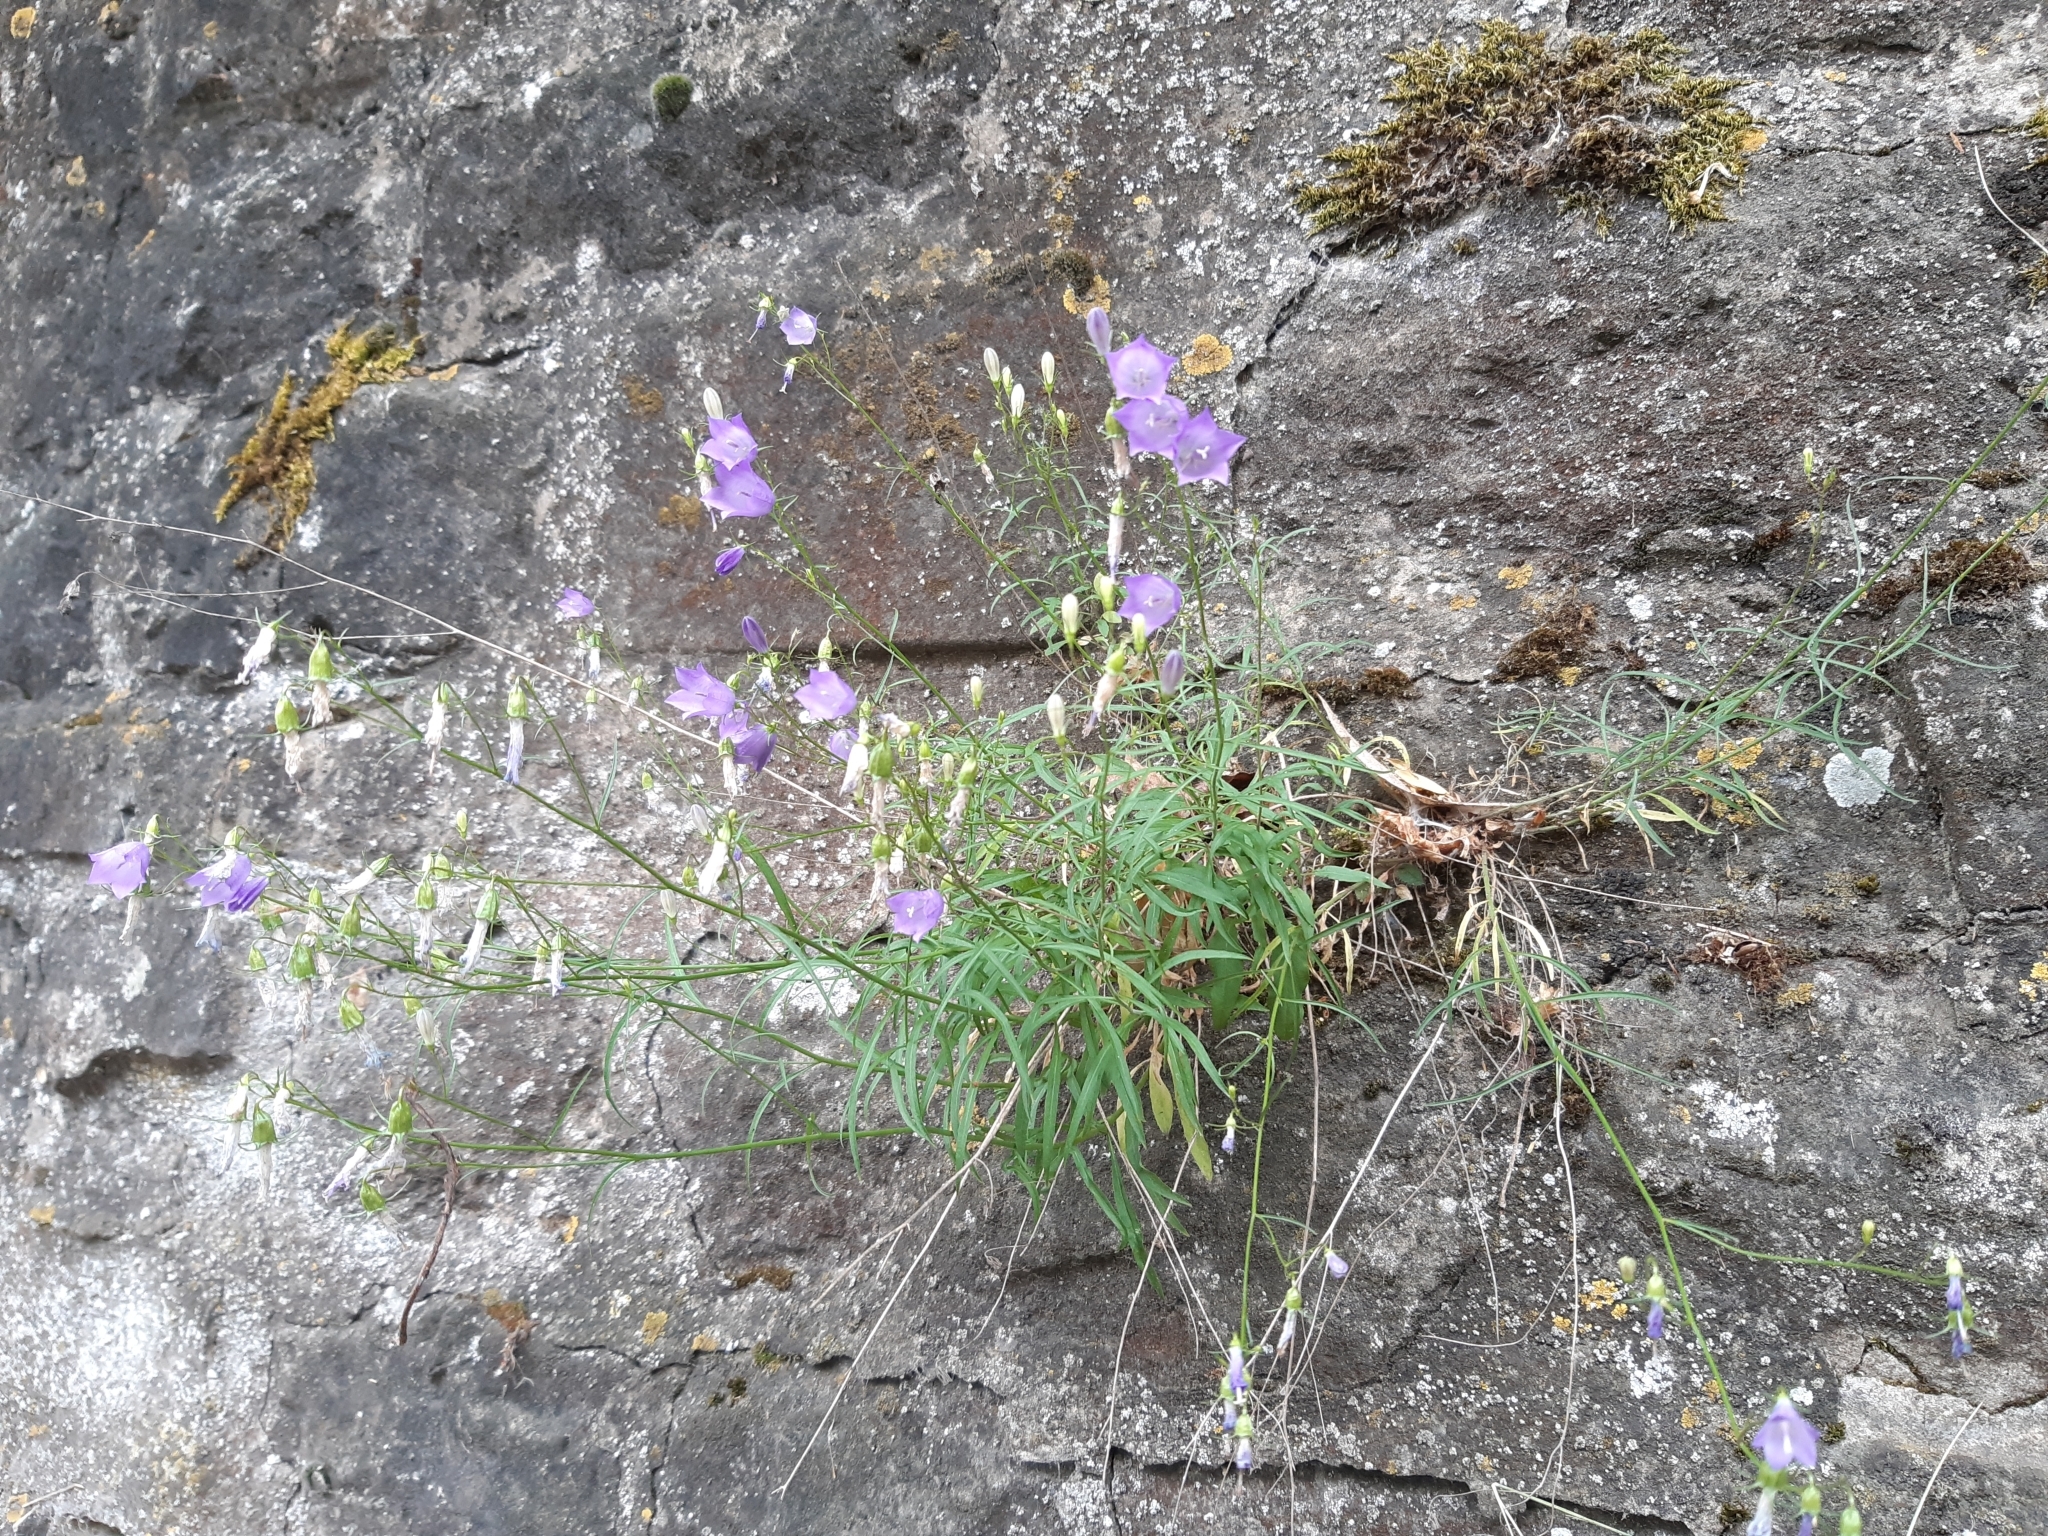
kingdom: Plantae
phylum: Tracheophyta
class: Magnoliopsida
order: Asterales
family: Campanulaceae
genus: Campanula
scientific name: Campanula rotundifolia
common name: Harebell
